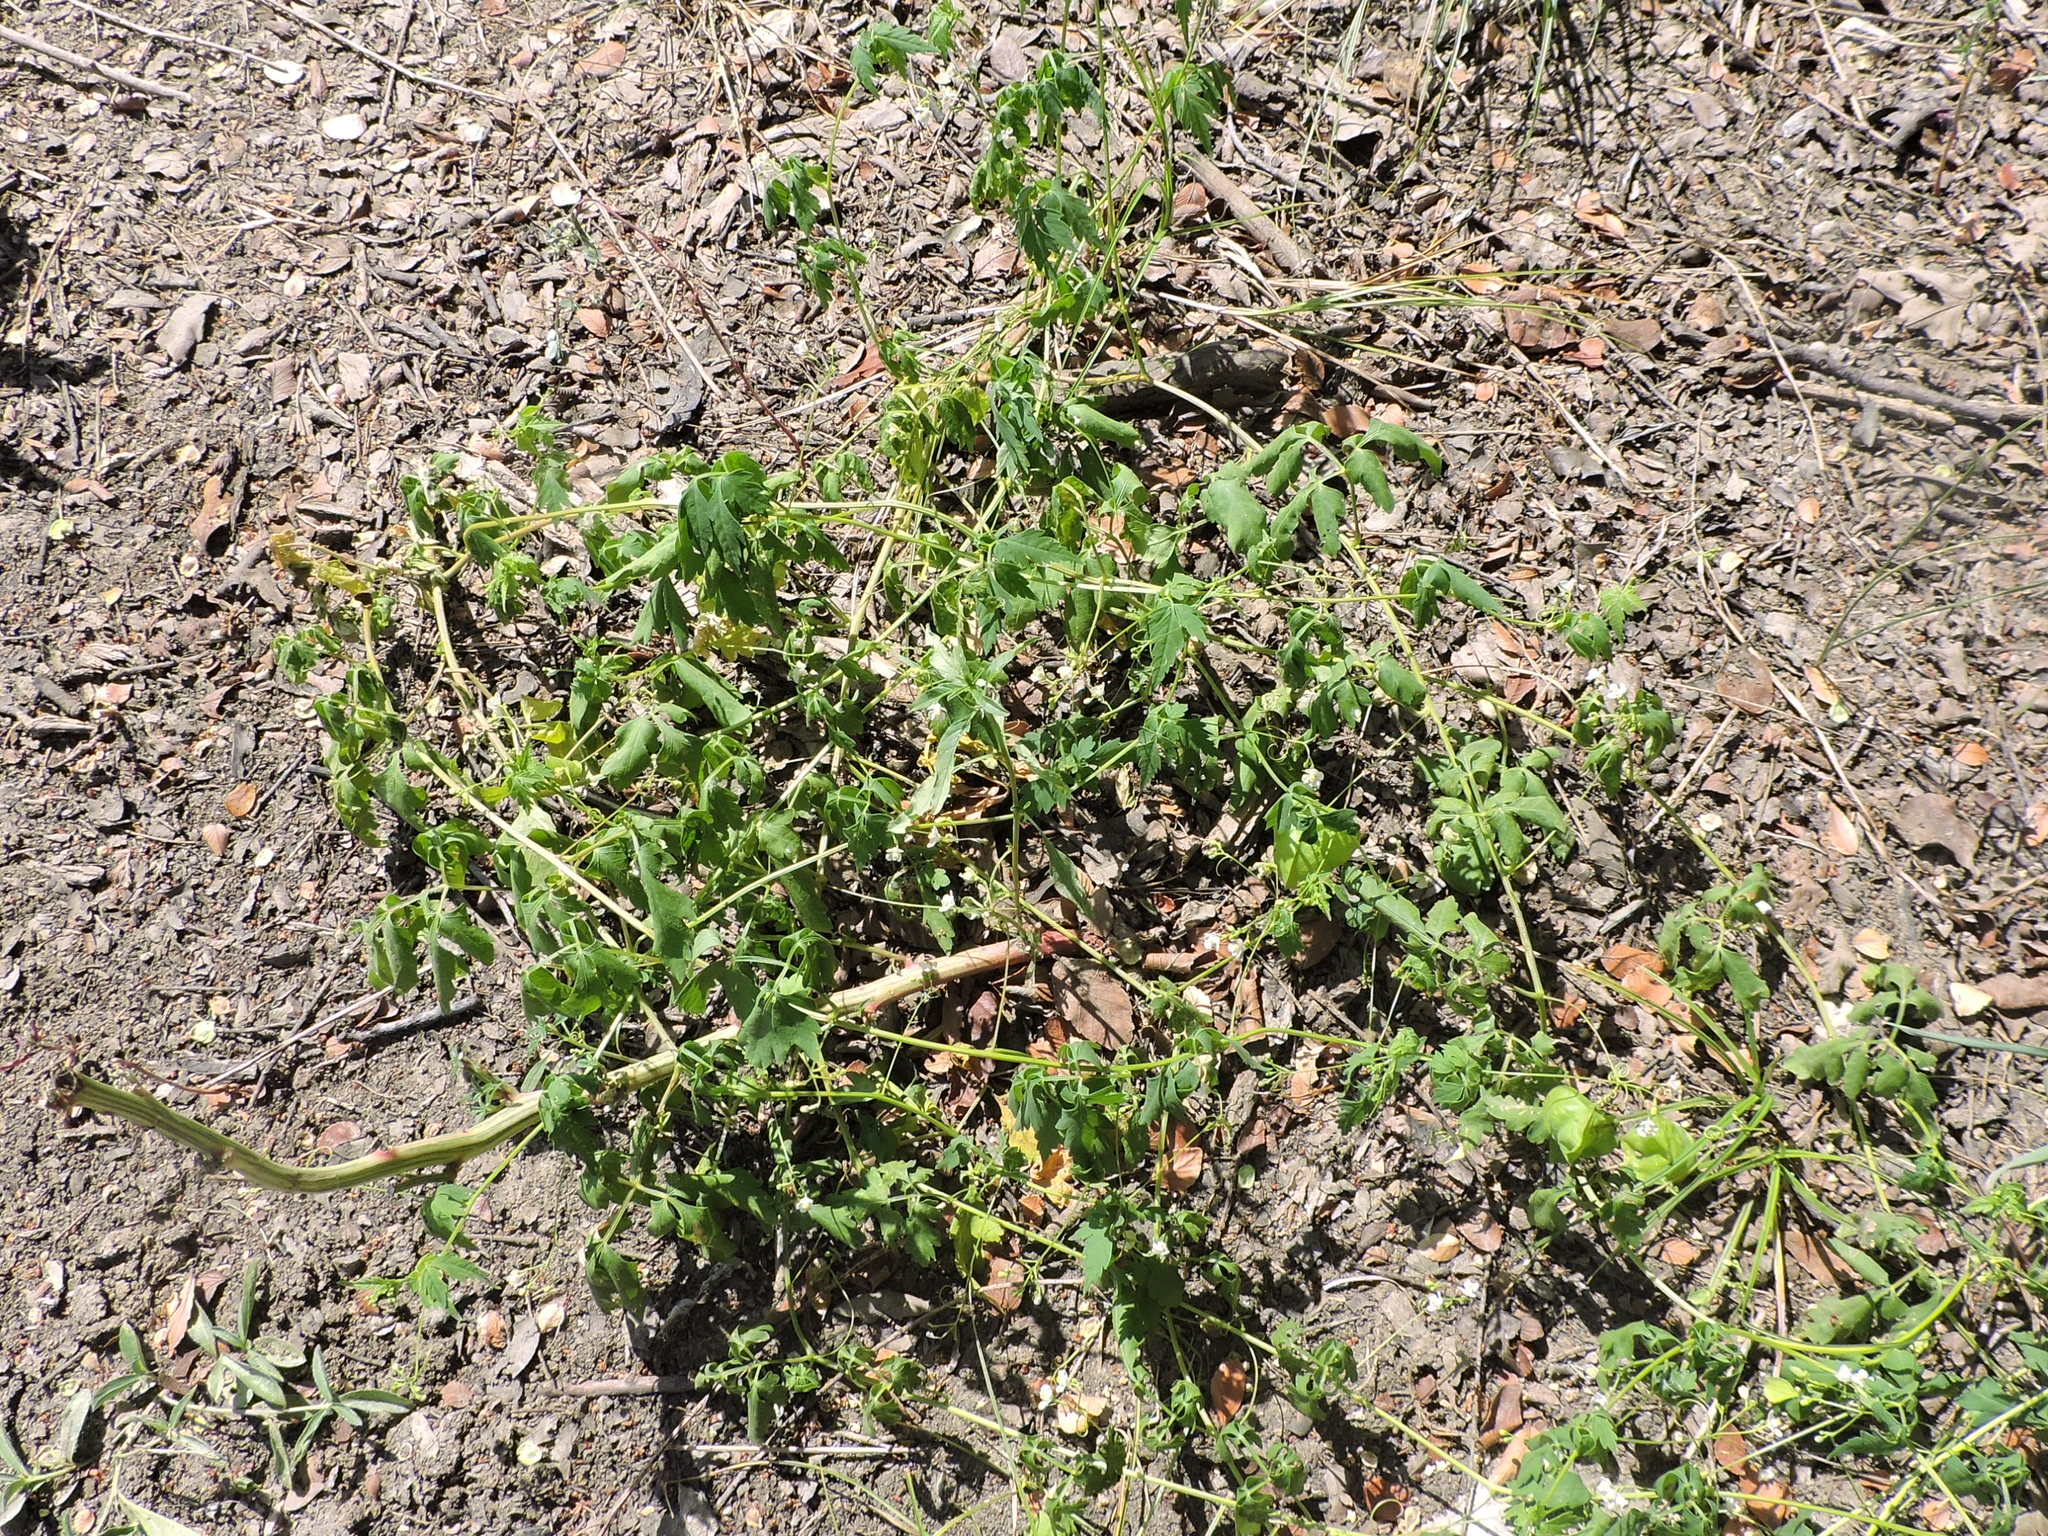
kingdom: Plantae
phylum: Tracheophyta
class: Magnoliopsida
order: Sapindales
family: Sapindaceae
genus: Cardiospermum
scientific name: Cardiospermum halicacabum
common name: Balloon vine
